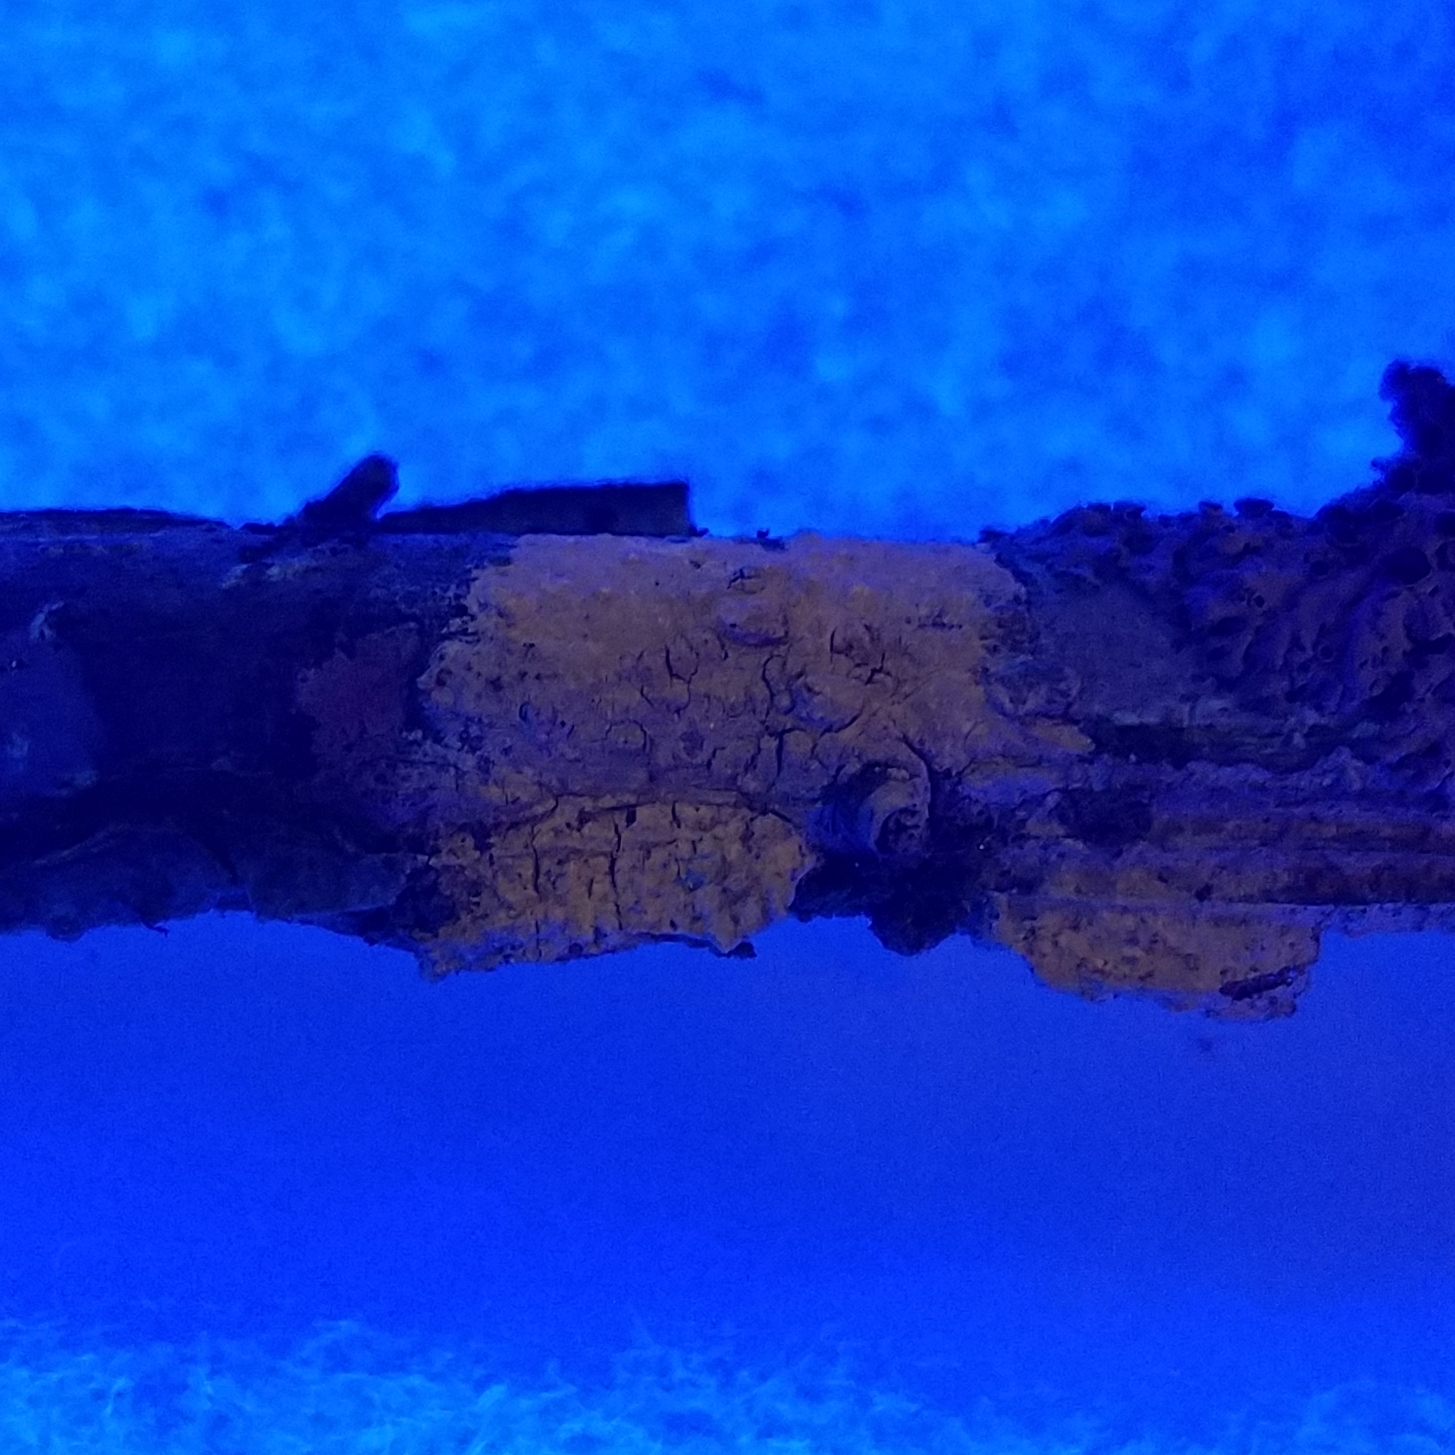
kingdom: Fungi
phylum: Ascomycota
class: Lecanoromycetes
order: Pertusariales
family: Pertusariaceae
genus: Pertusaria
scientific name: Pertusaria texana
